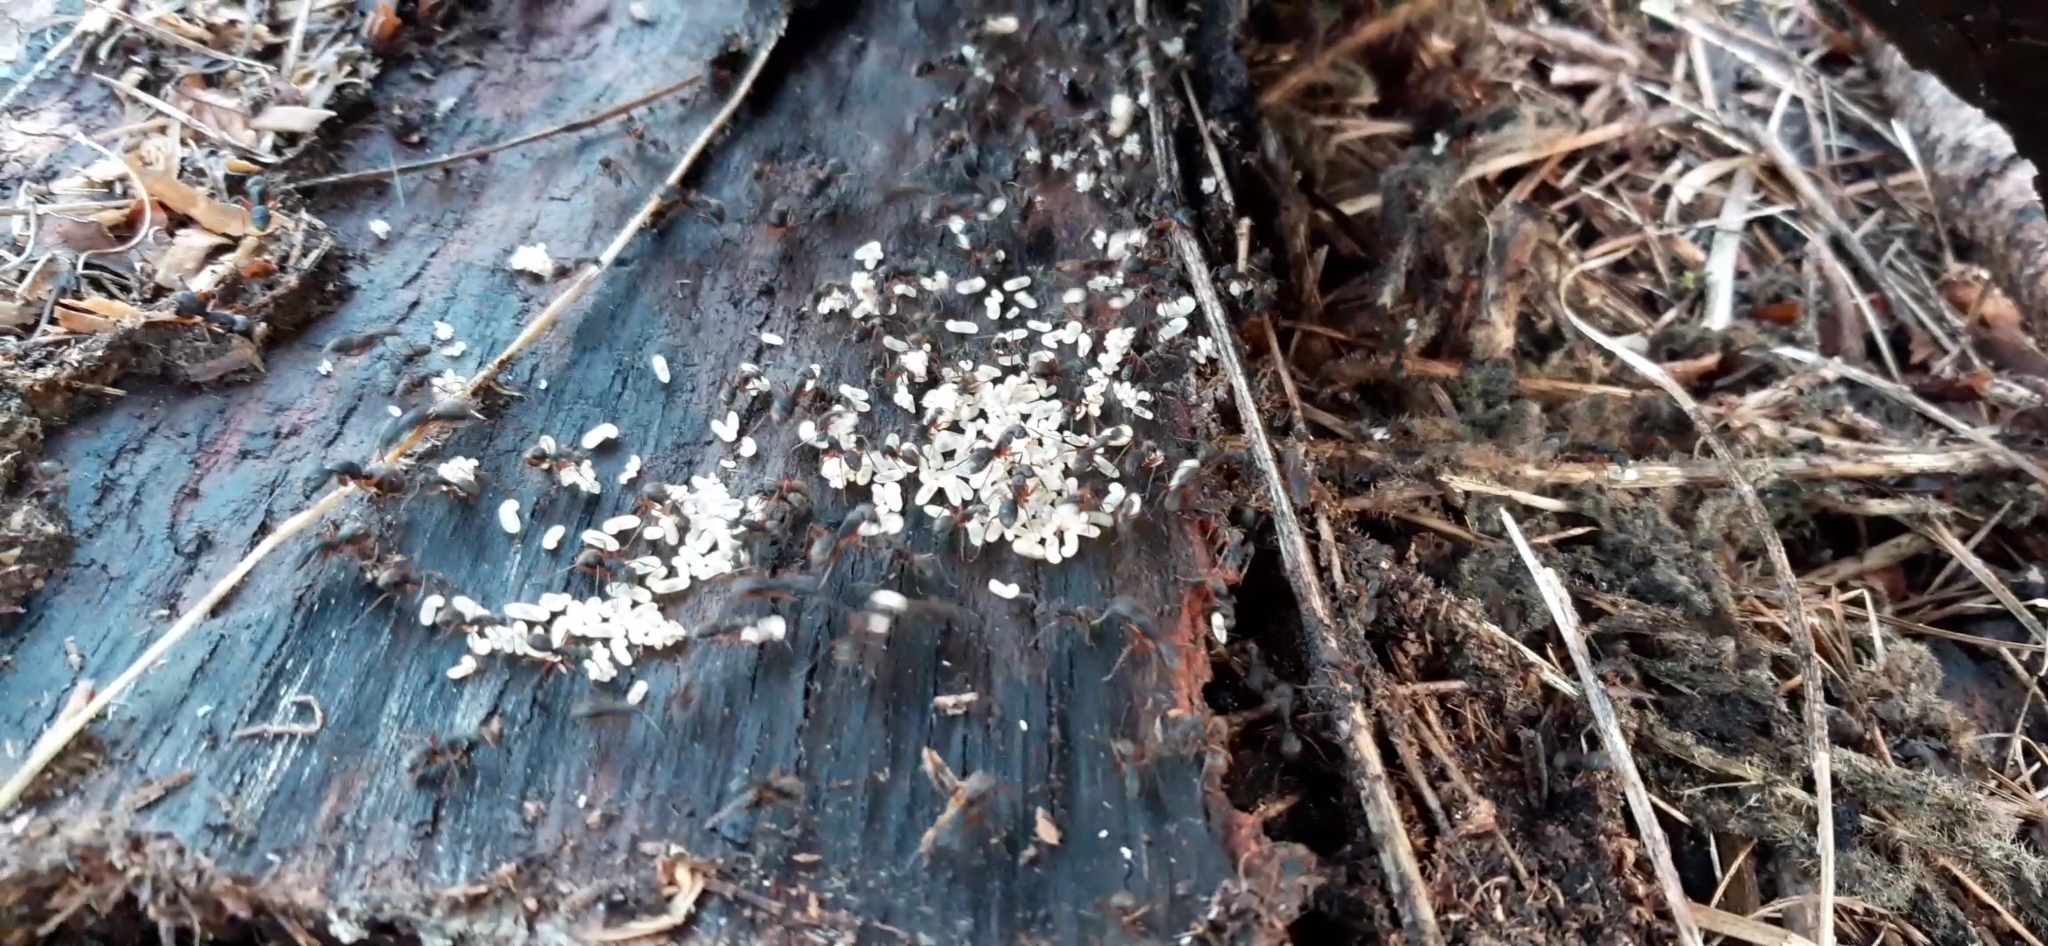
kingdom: Animalia
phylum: Arthropoda
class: Insecta
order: Hymenoptera
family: Formicidae
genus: Camponotus
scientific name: Camponotus rufipes
